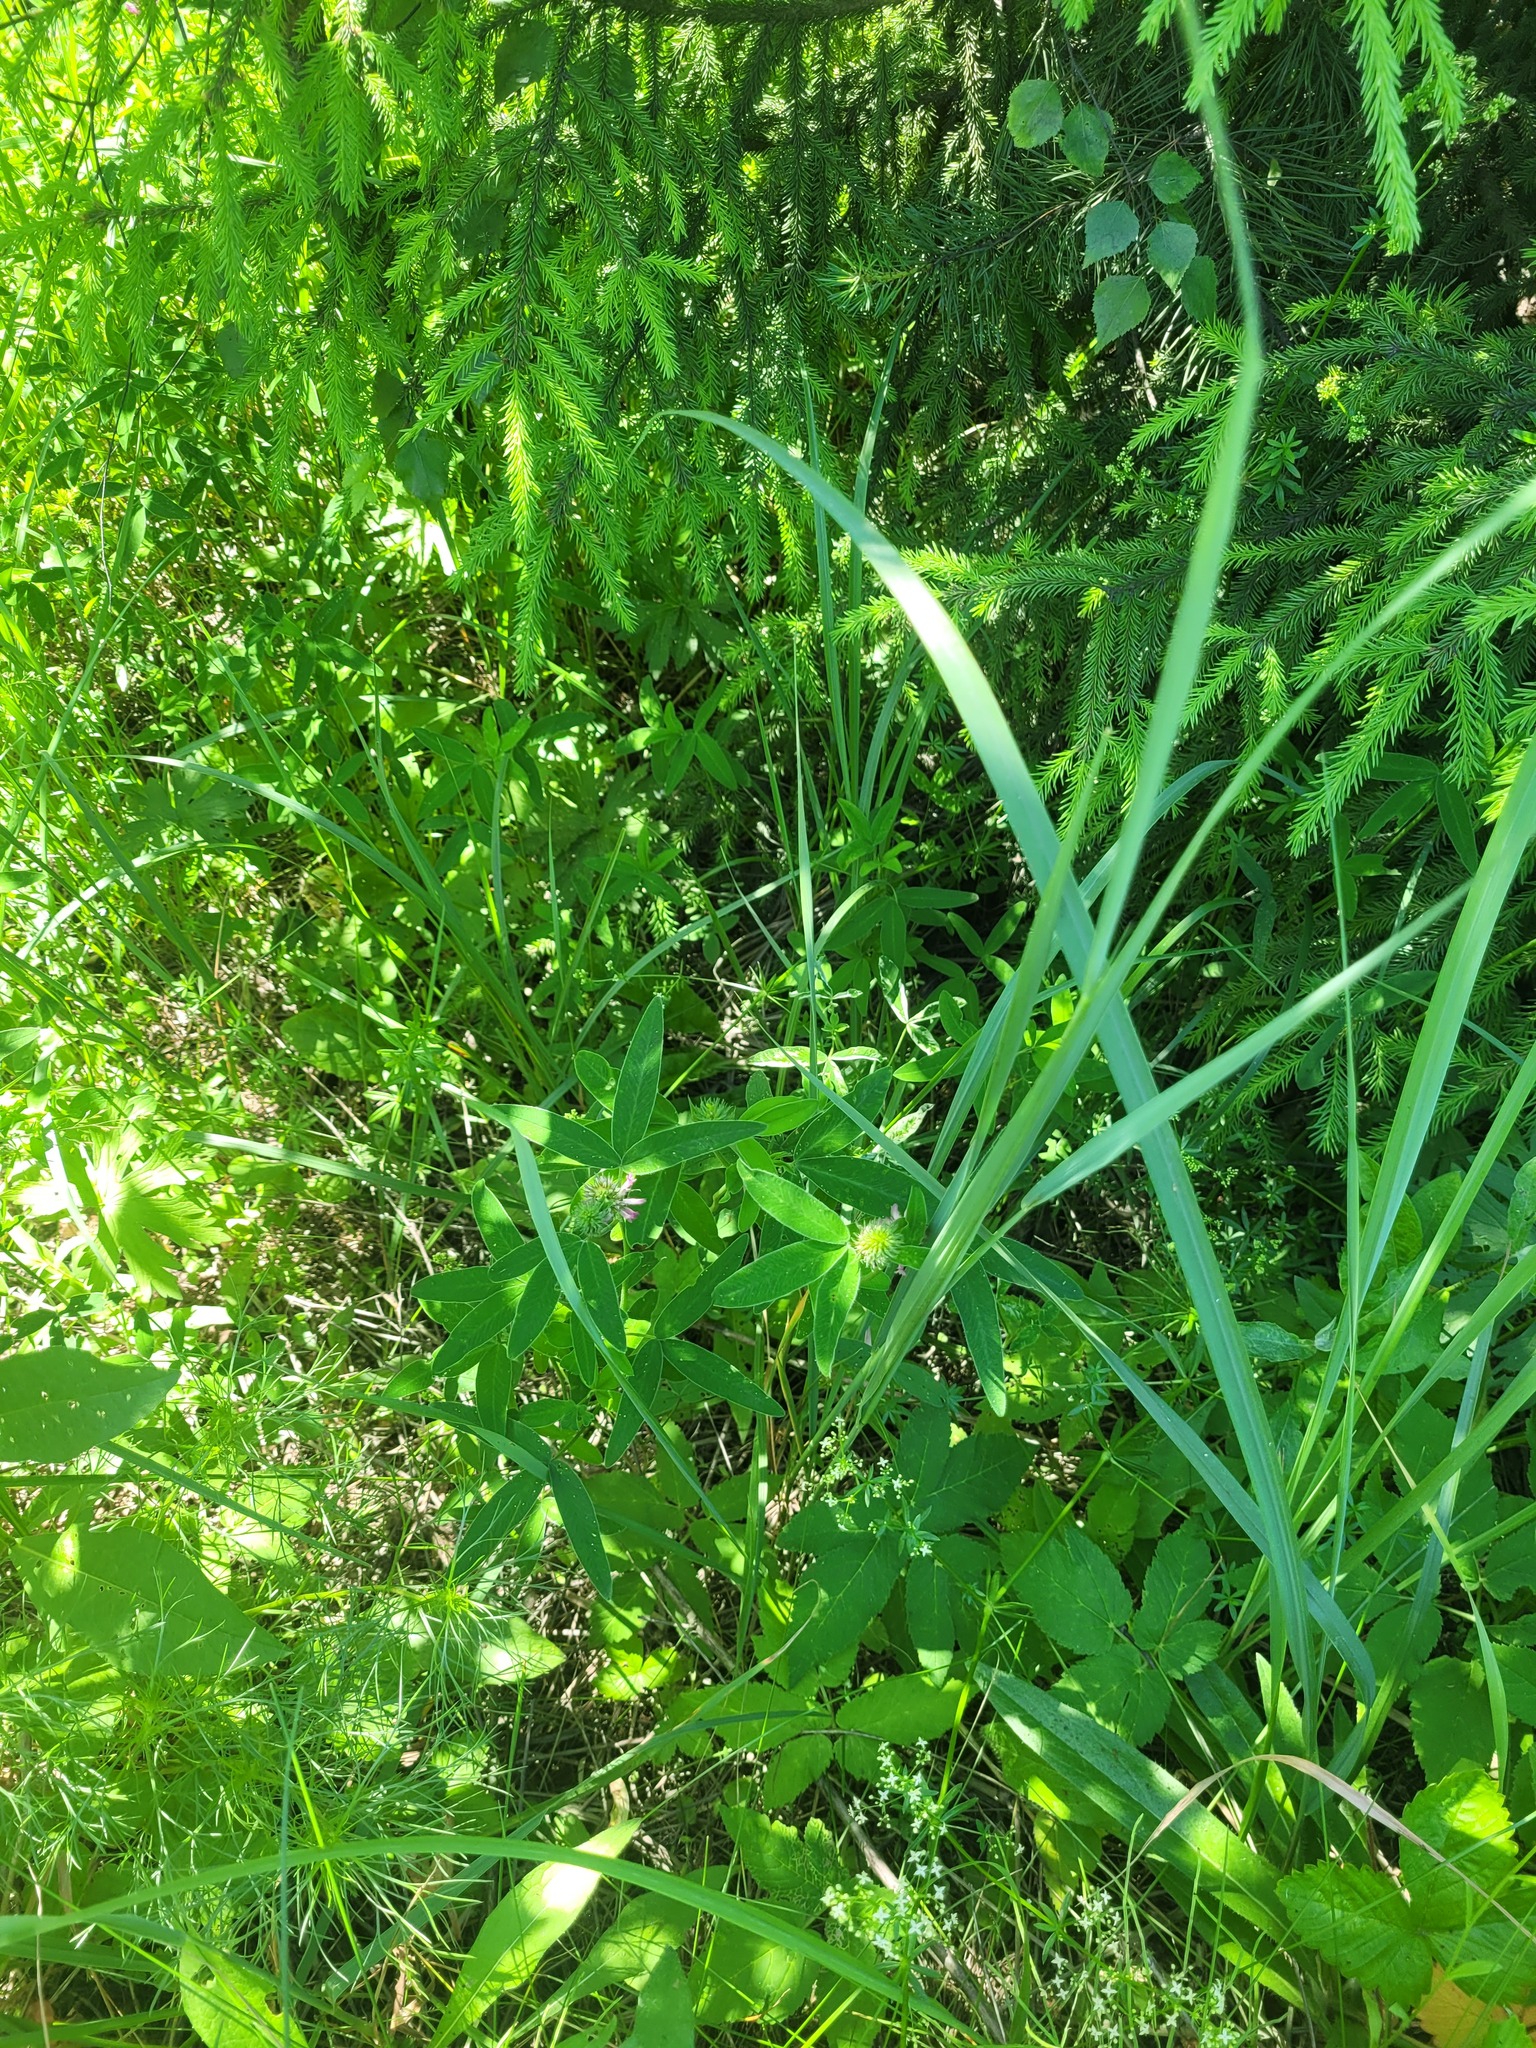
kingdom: Plantae
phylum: Tracheophyta
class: Magnoliopsida
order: Fabales
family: Fabaceae
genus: Trifolium
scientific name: Trifolium medium
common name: Zigzag clover
